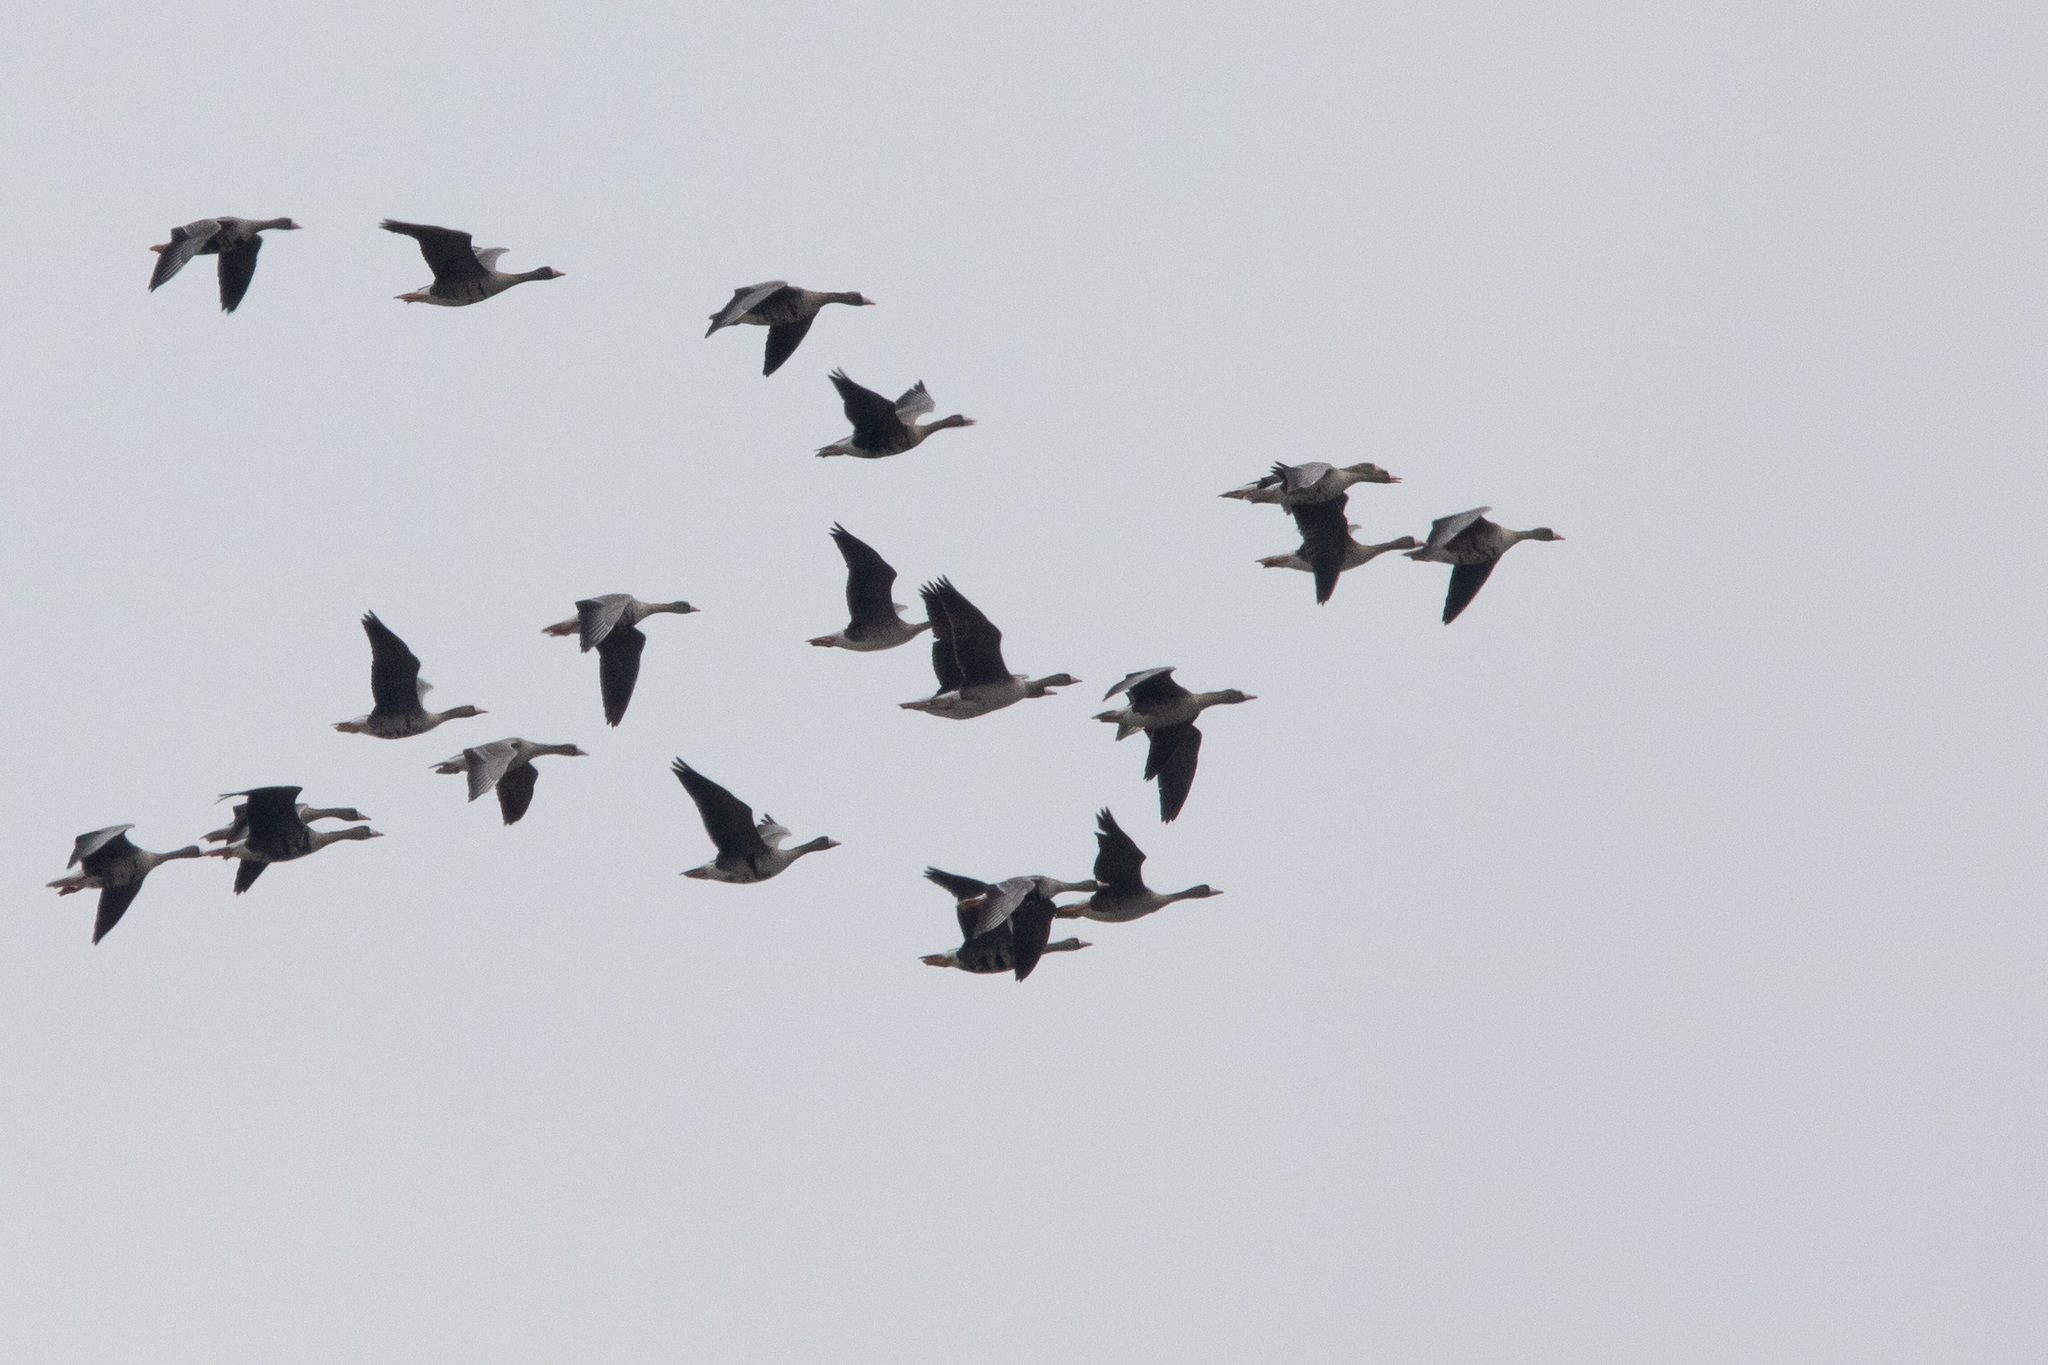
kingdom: Animalia
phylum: Chordata
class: Aves
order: Anseriformes
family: Anatidae
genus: Anser
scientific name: Anser albifrons
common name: Greater white-fronted goose
